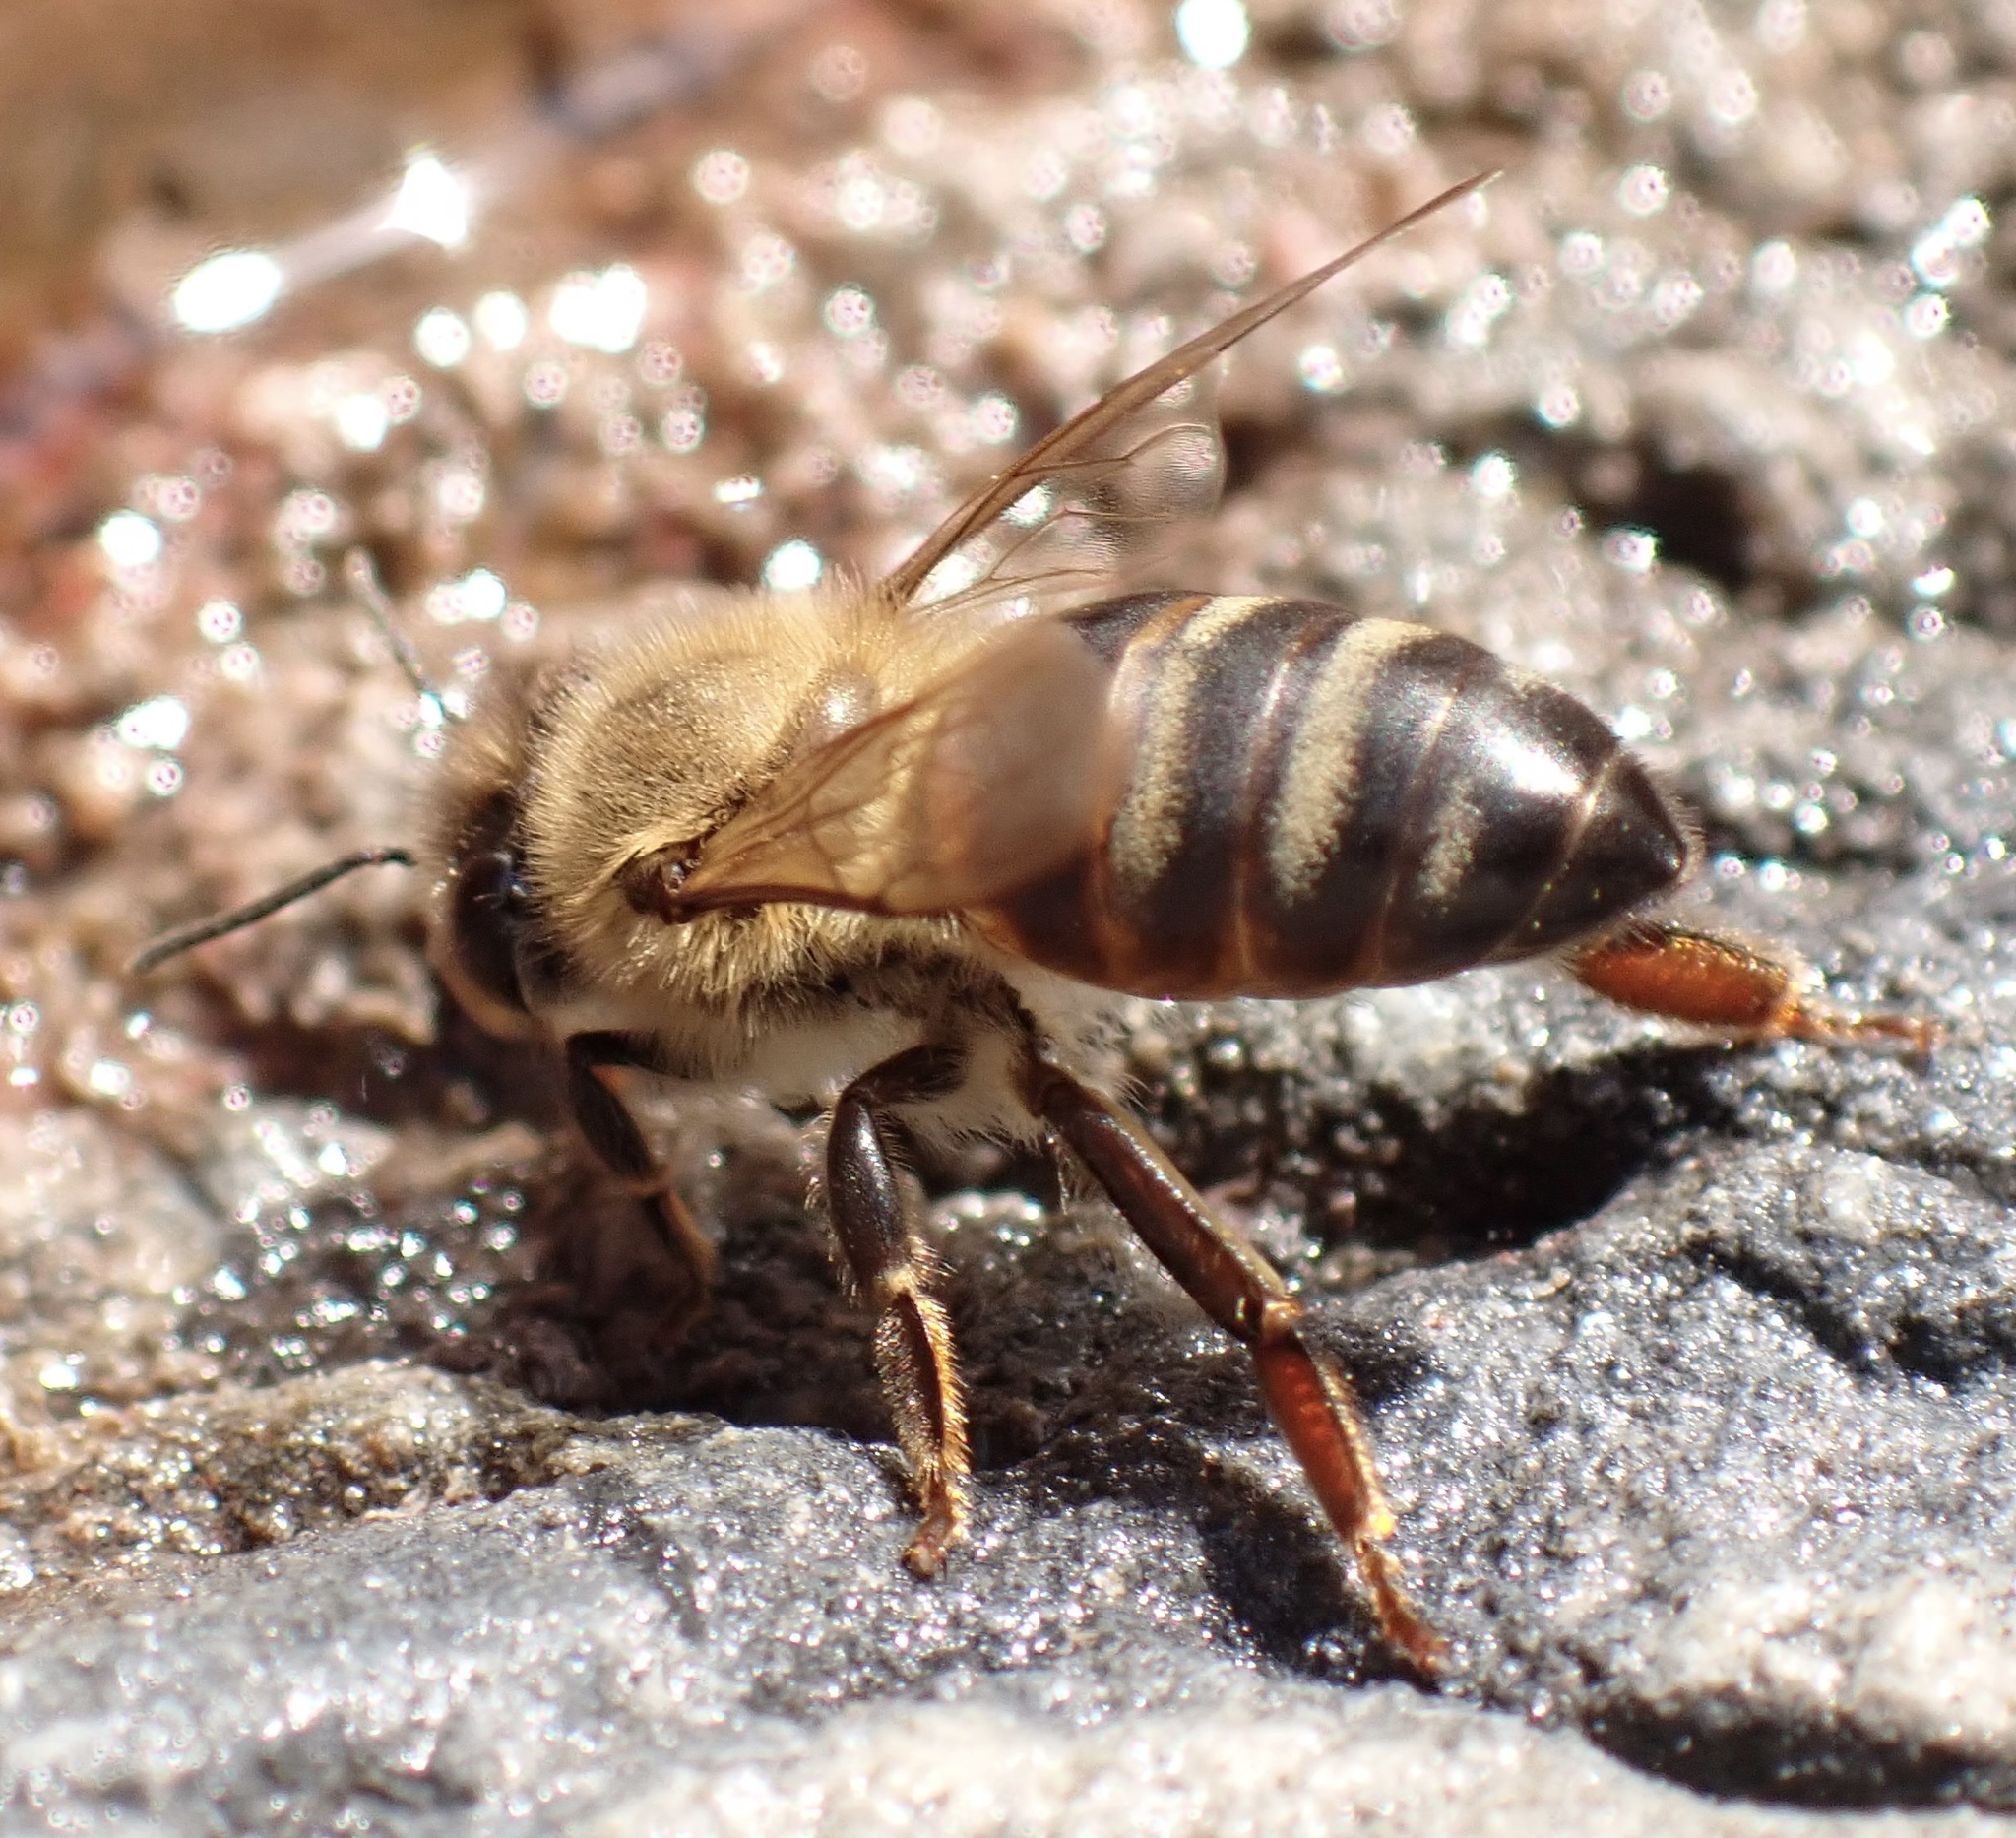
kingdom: Animalia
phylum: Arthropoda
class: Insecta
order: Hymenoptera
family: Apidae
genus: Apis
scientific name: Apis mellifera
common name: Honey bee
